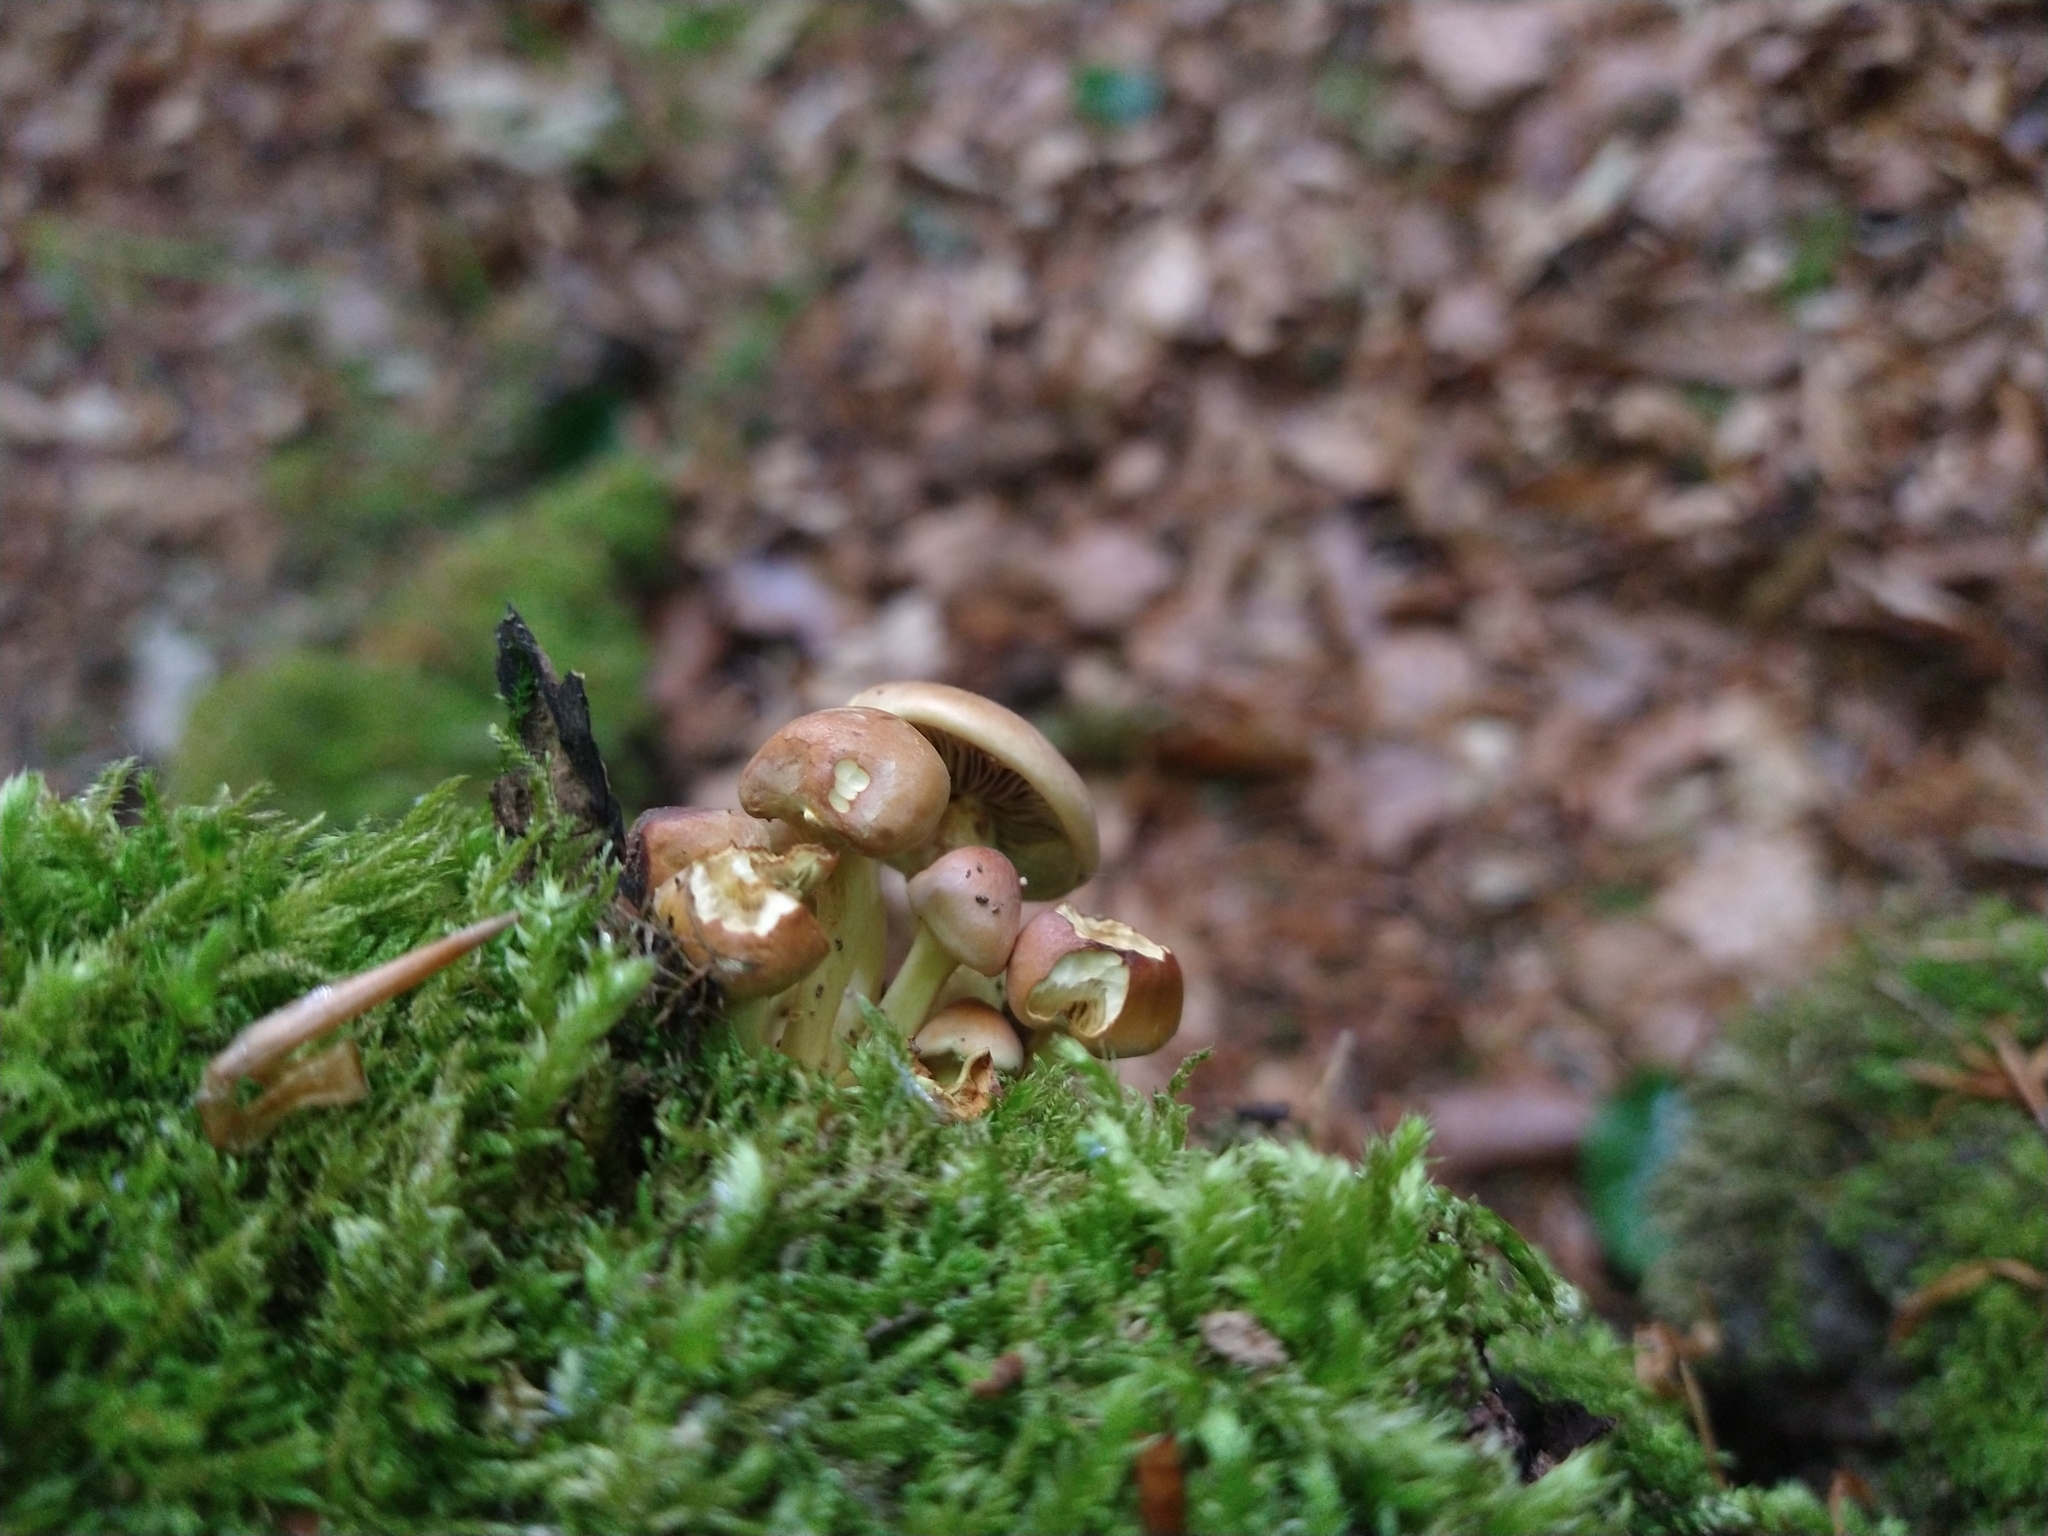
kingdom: Fungi
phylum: Basidiomycota
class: Agaricomycetes
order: Agaricales
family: Strophariaceae
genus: Hypholoma
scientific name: Hypholoma fasciculare
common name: Sulphur tuft
